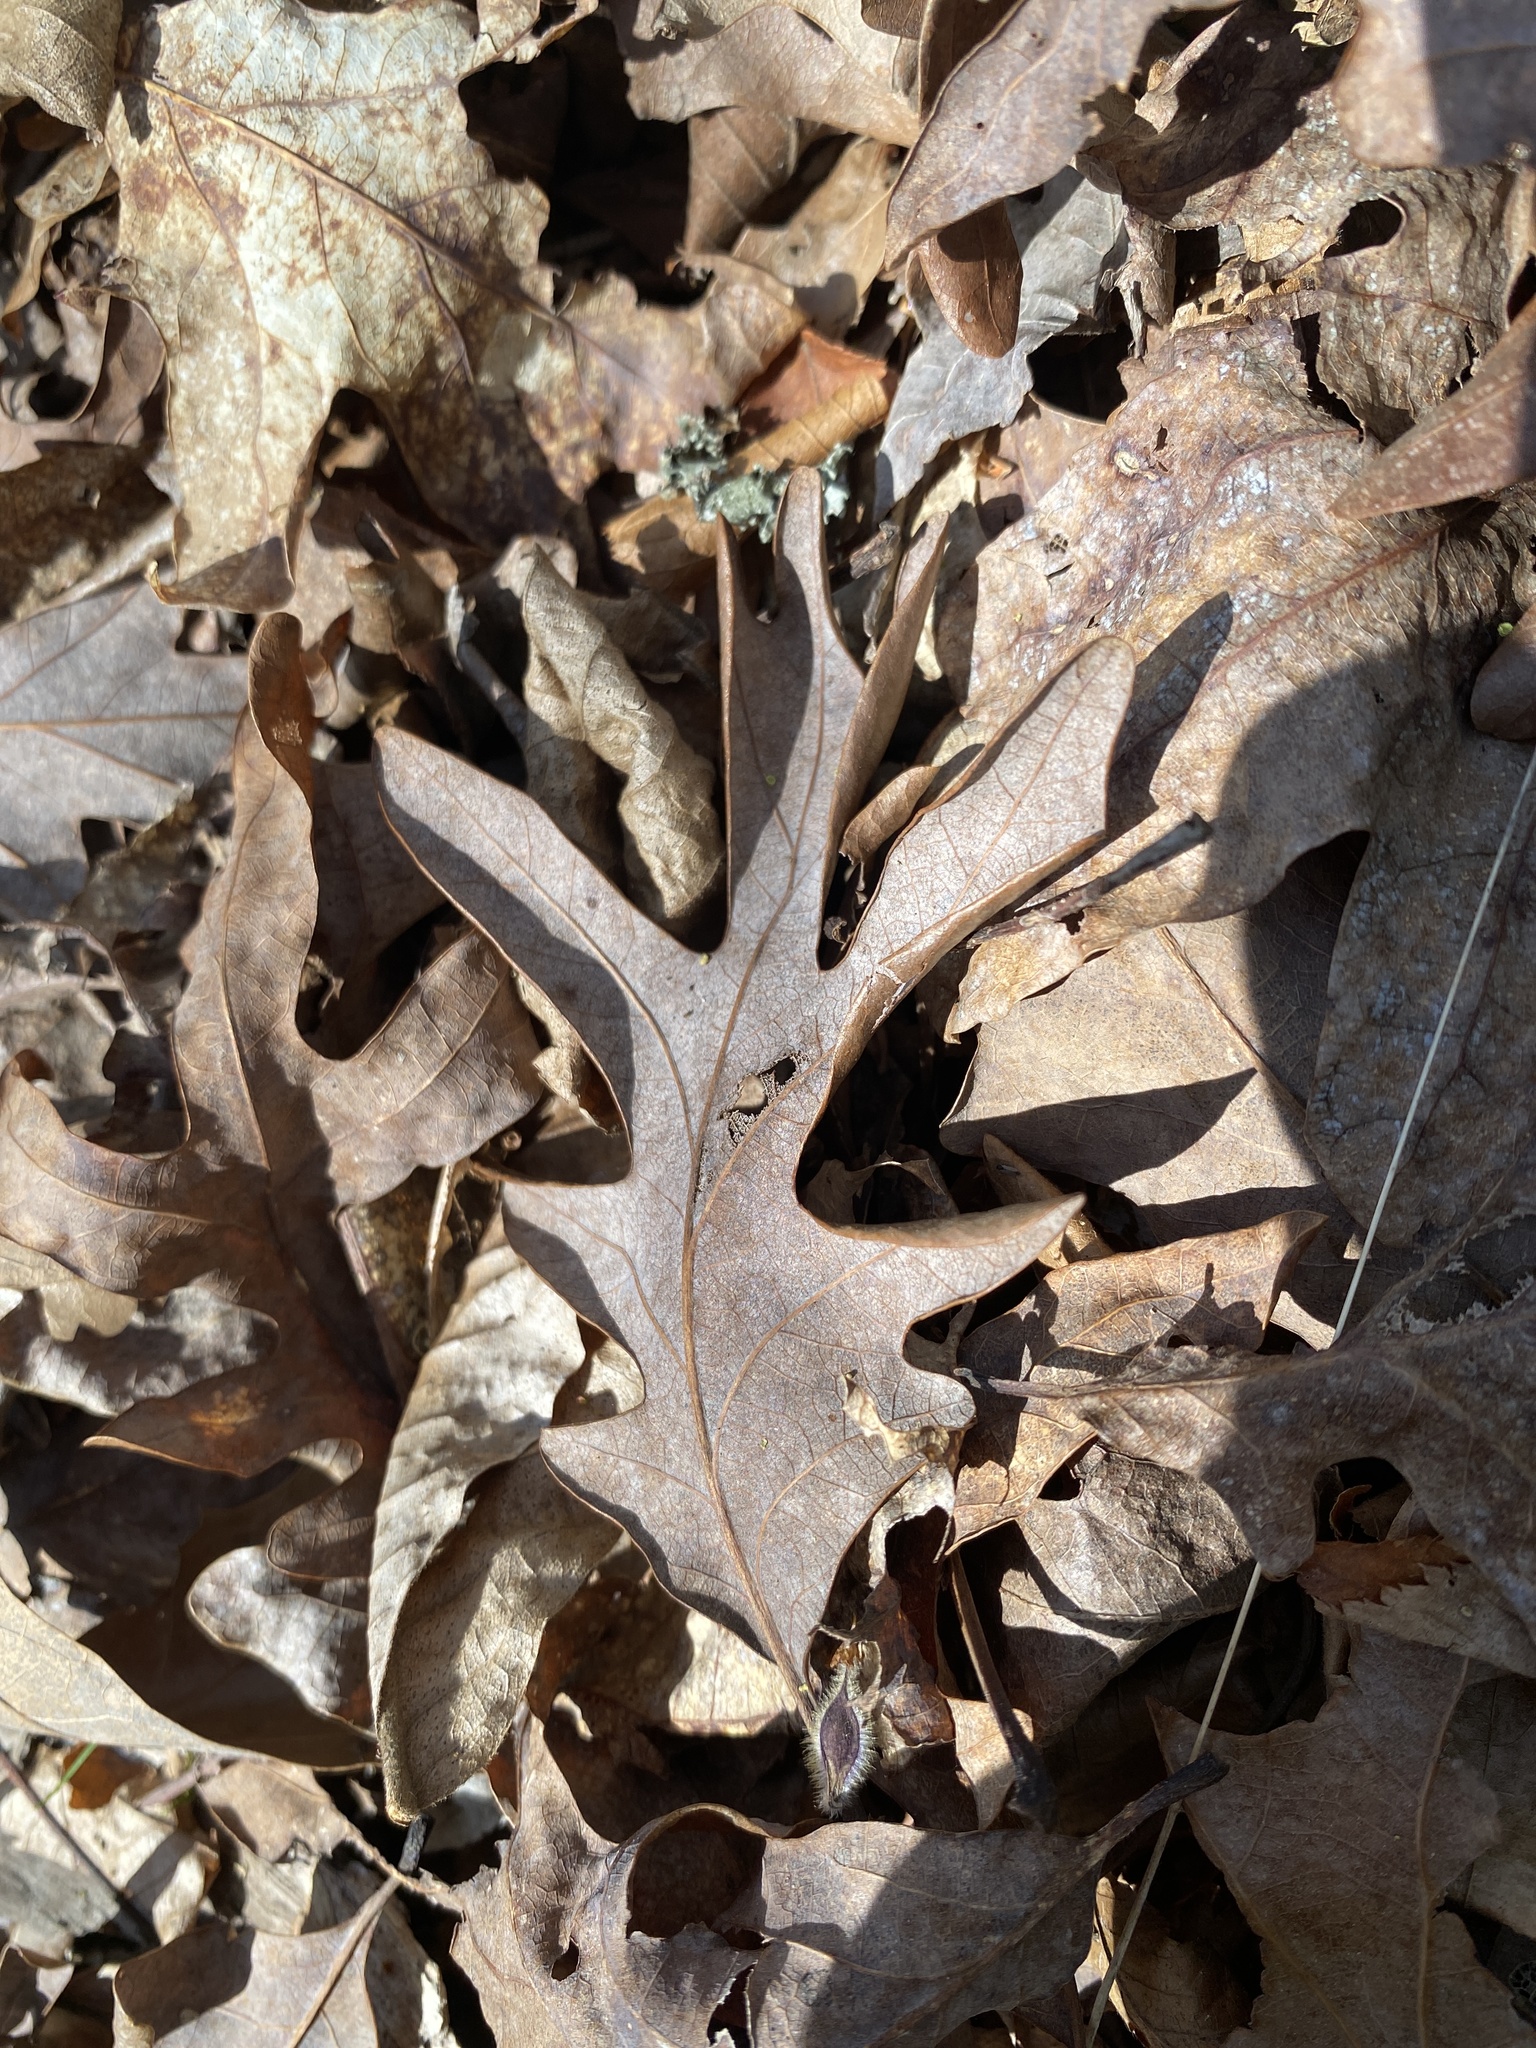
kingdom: Plantae
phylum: Tracheophyta
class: Magnoliopsida
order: Fagales
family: Fagaceae
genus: Quercus
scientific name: Quercus alba
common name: White oak
